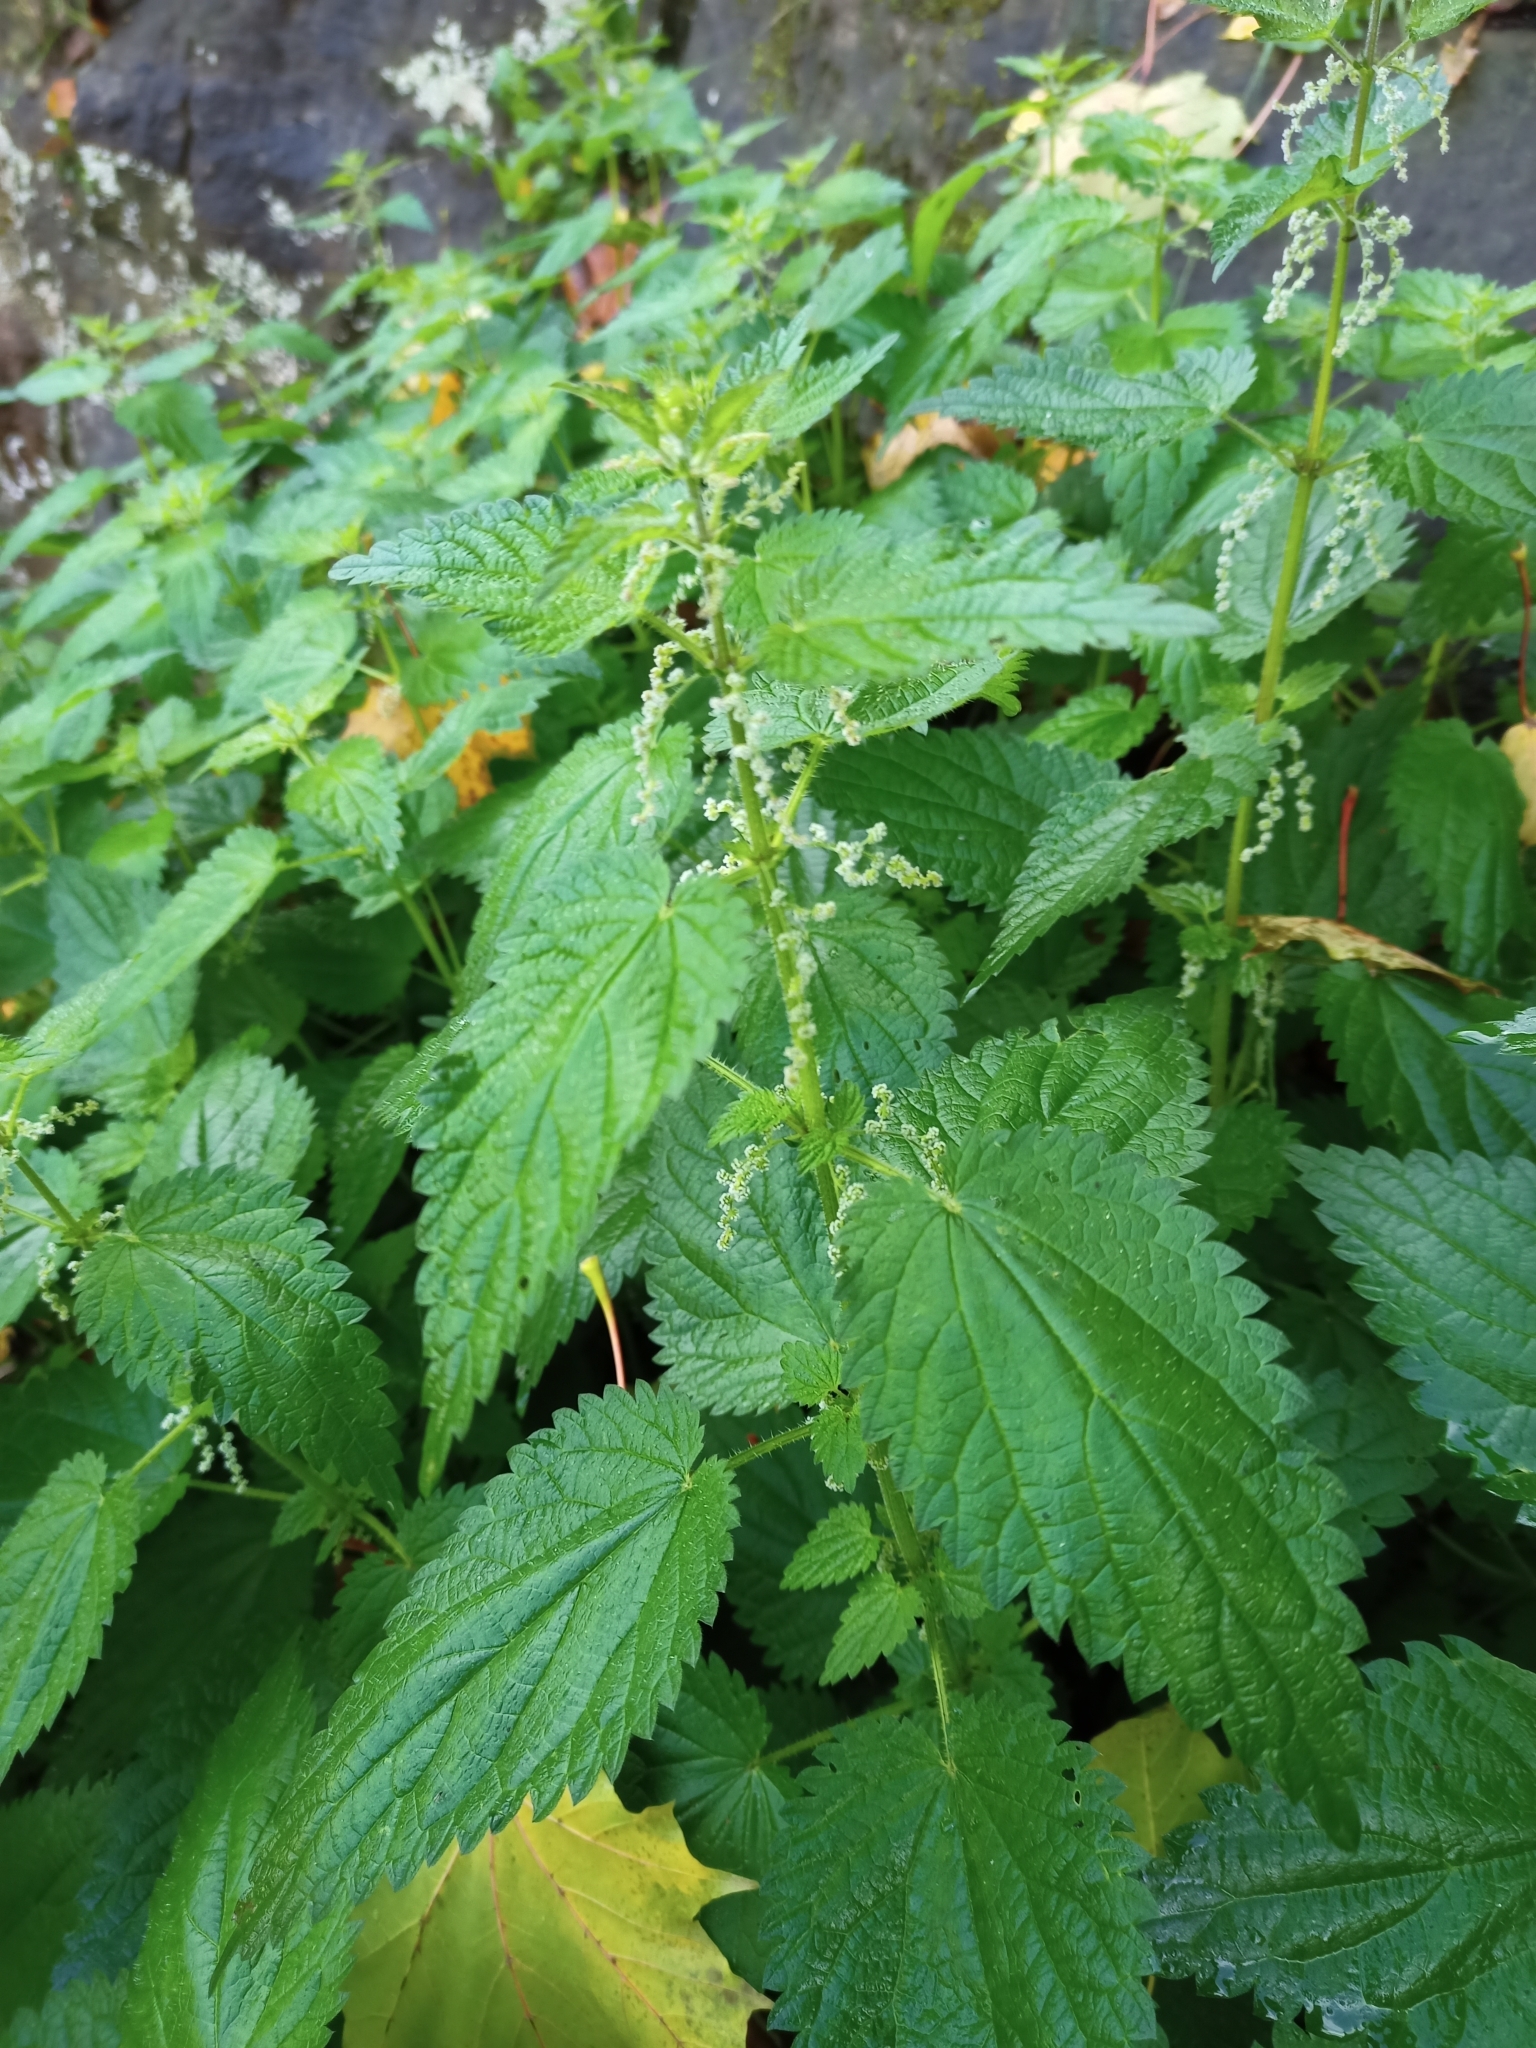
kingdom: Plantae
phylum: Tracheophyta
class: Magnoliopsida
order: Rosales
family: Urticaceae
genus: Urtica
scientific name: Urtica dioica
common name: Common nettle
